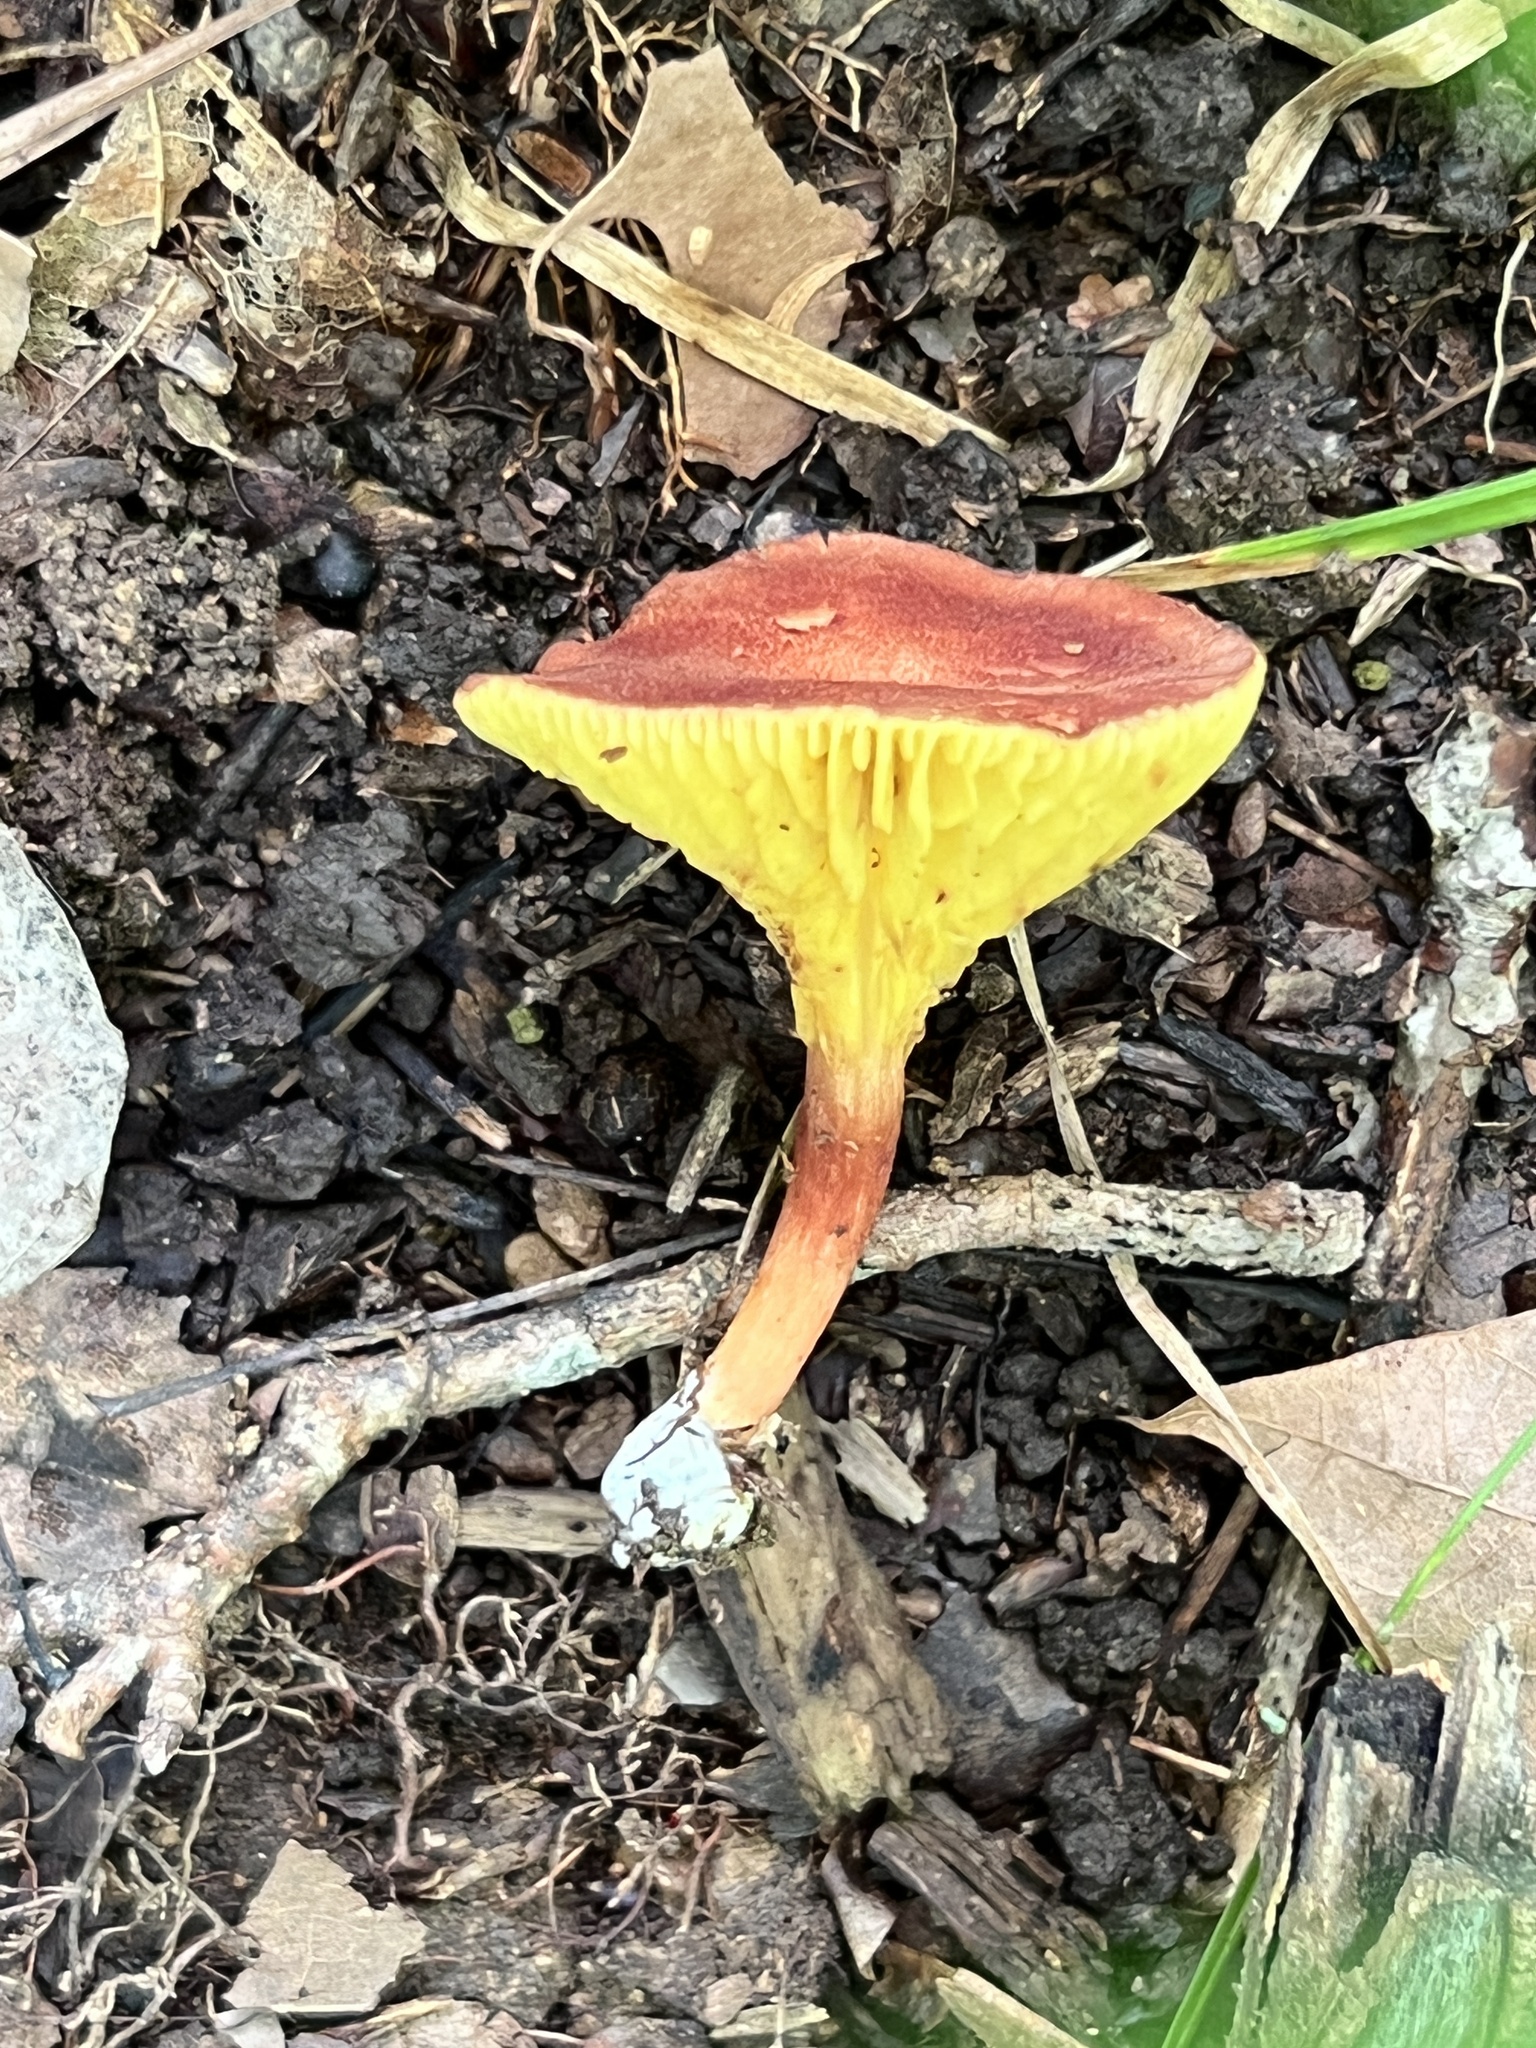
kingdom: Fungi
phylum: Basidiomycota
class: Agaricomycetes
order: Boletales
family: Boletaceae
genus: Phylloporus
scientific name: Phylloporus bellus
